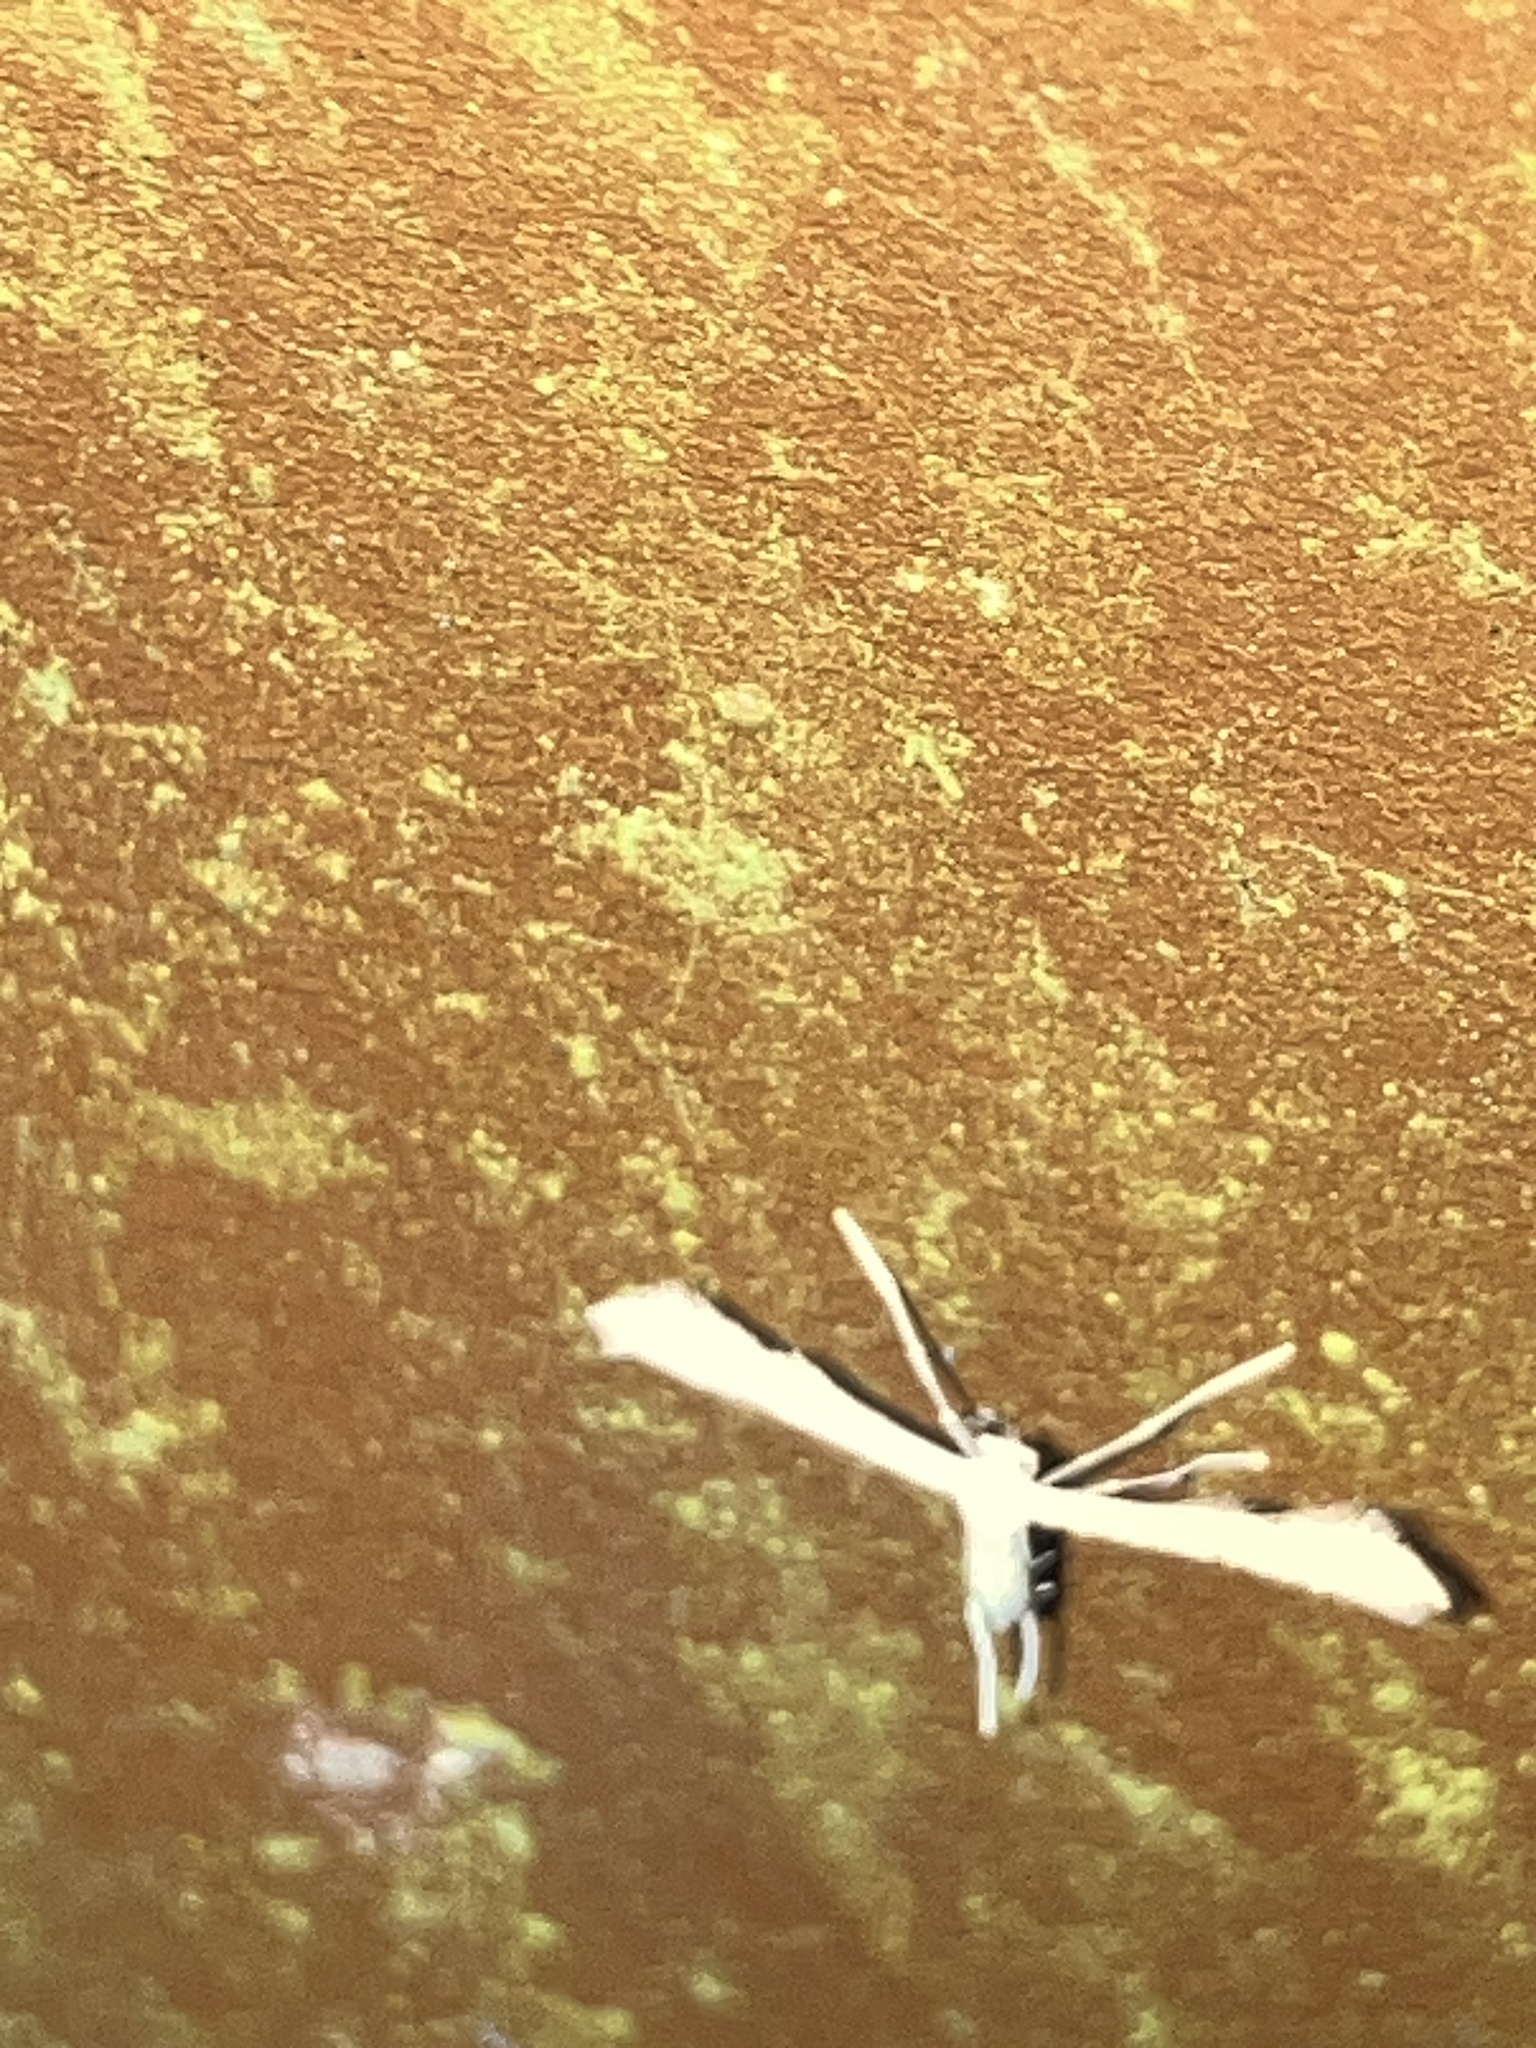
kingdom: Animalia
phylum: Arthropoda
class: Insecta
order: Lepidoptera
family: Pterophoridae
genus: Adaina
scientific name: Adaina
